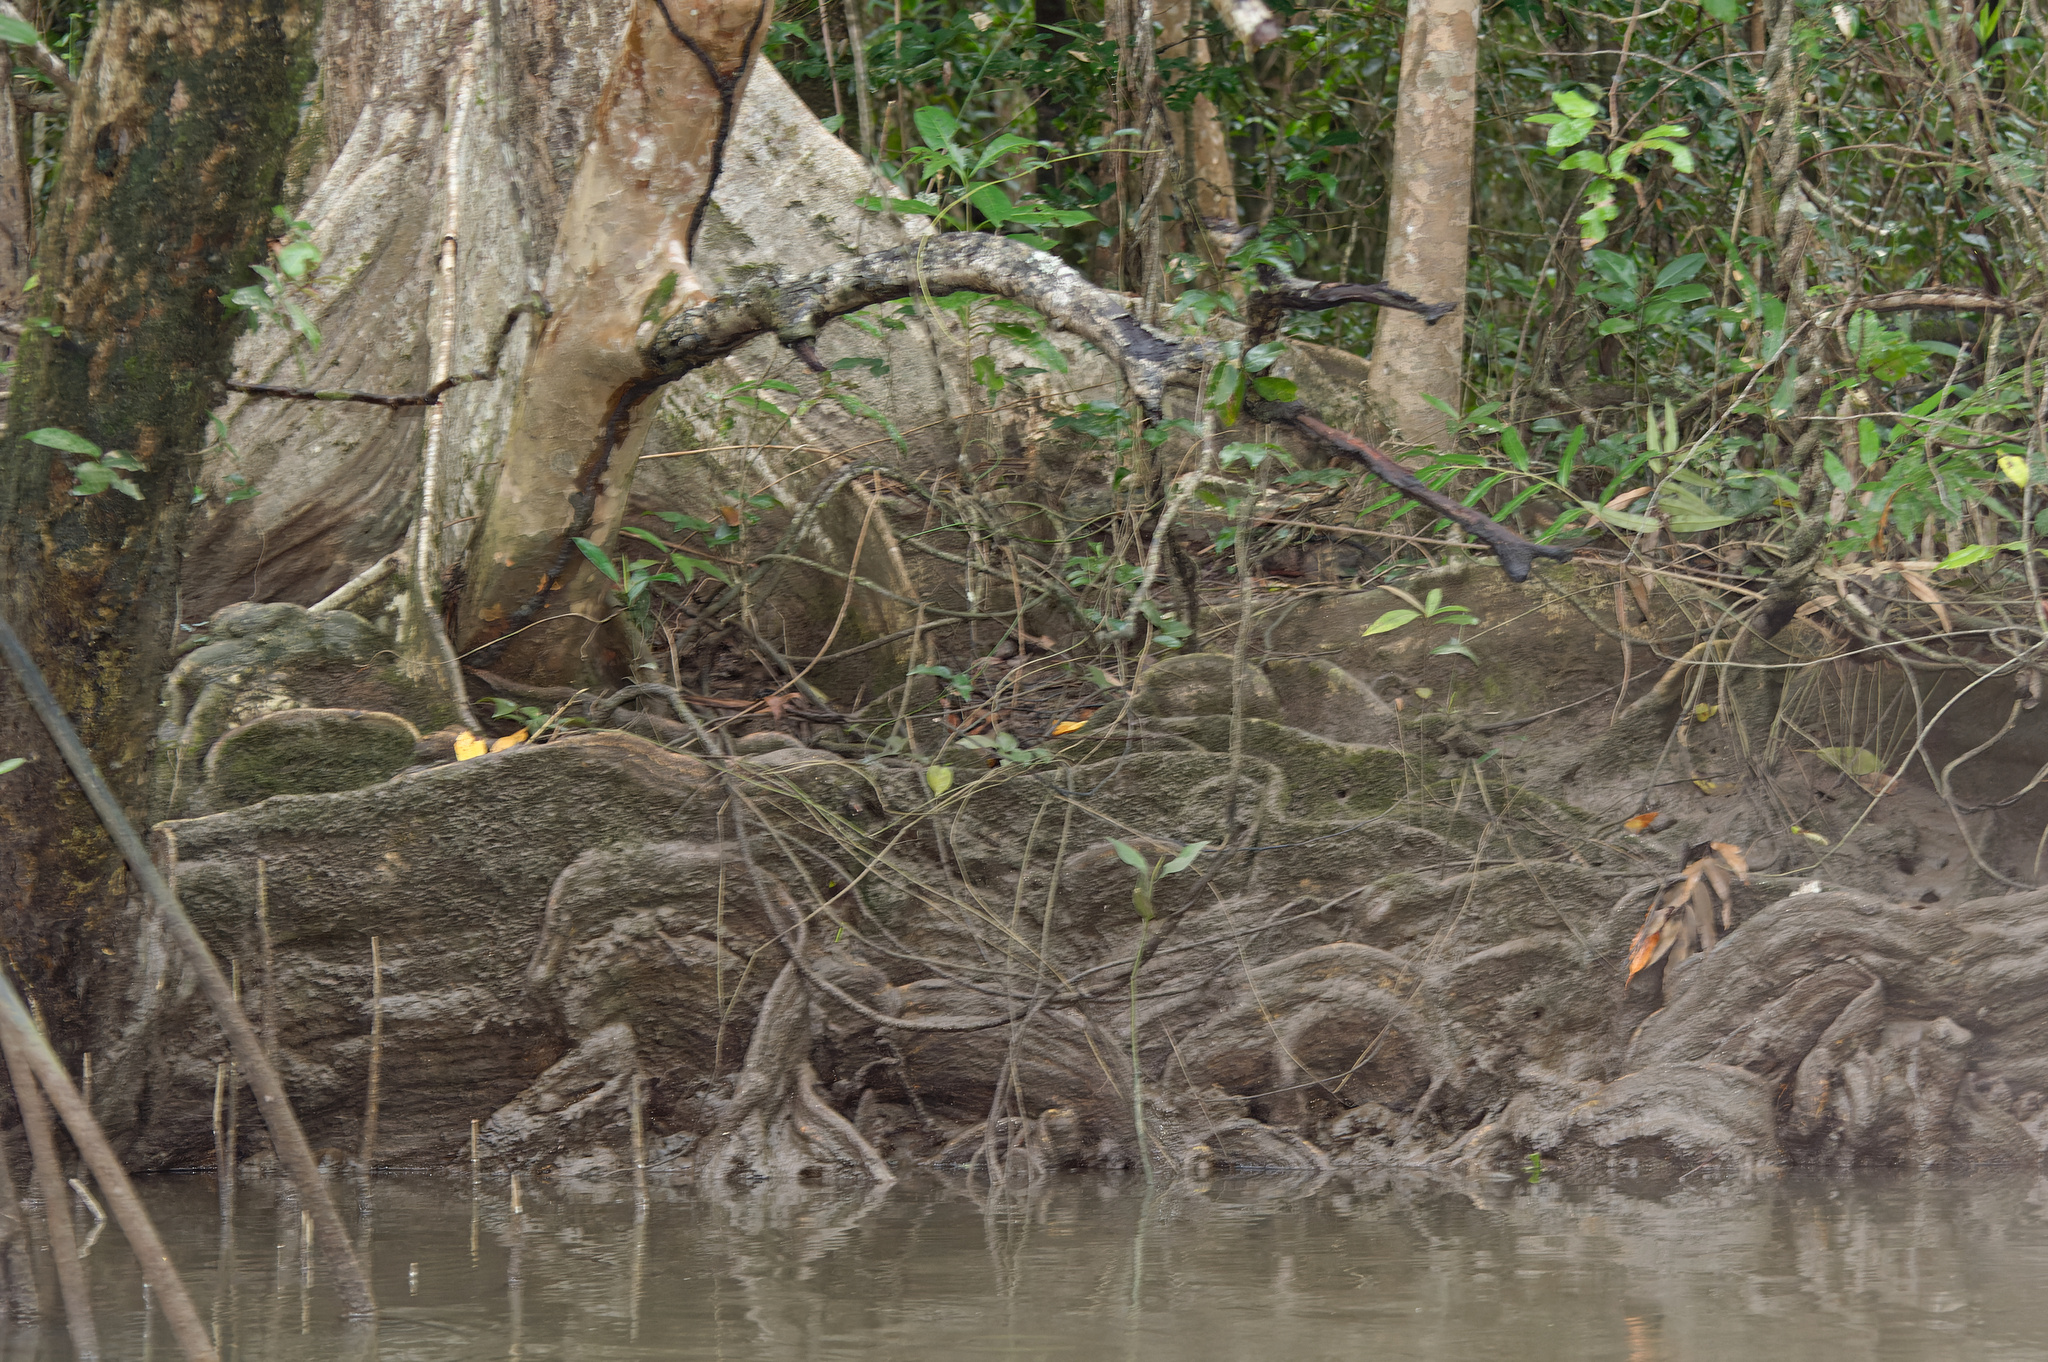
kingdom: Plantae
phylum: Tracheophyta
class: Magnoliopsida
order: Malvales
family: Malvaceae
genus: Heritiera
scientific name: Heritiera littoralis
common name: Looking-glass mangrove
